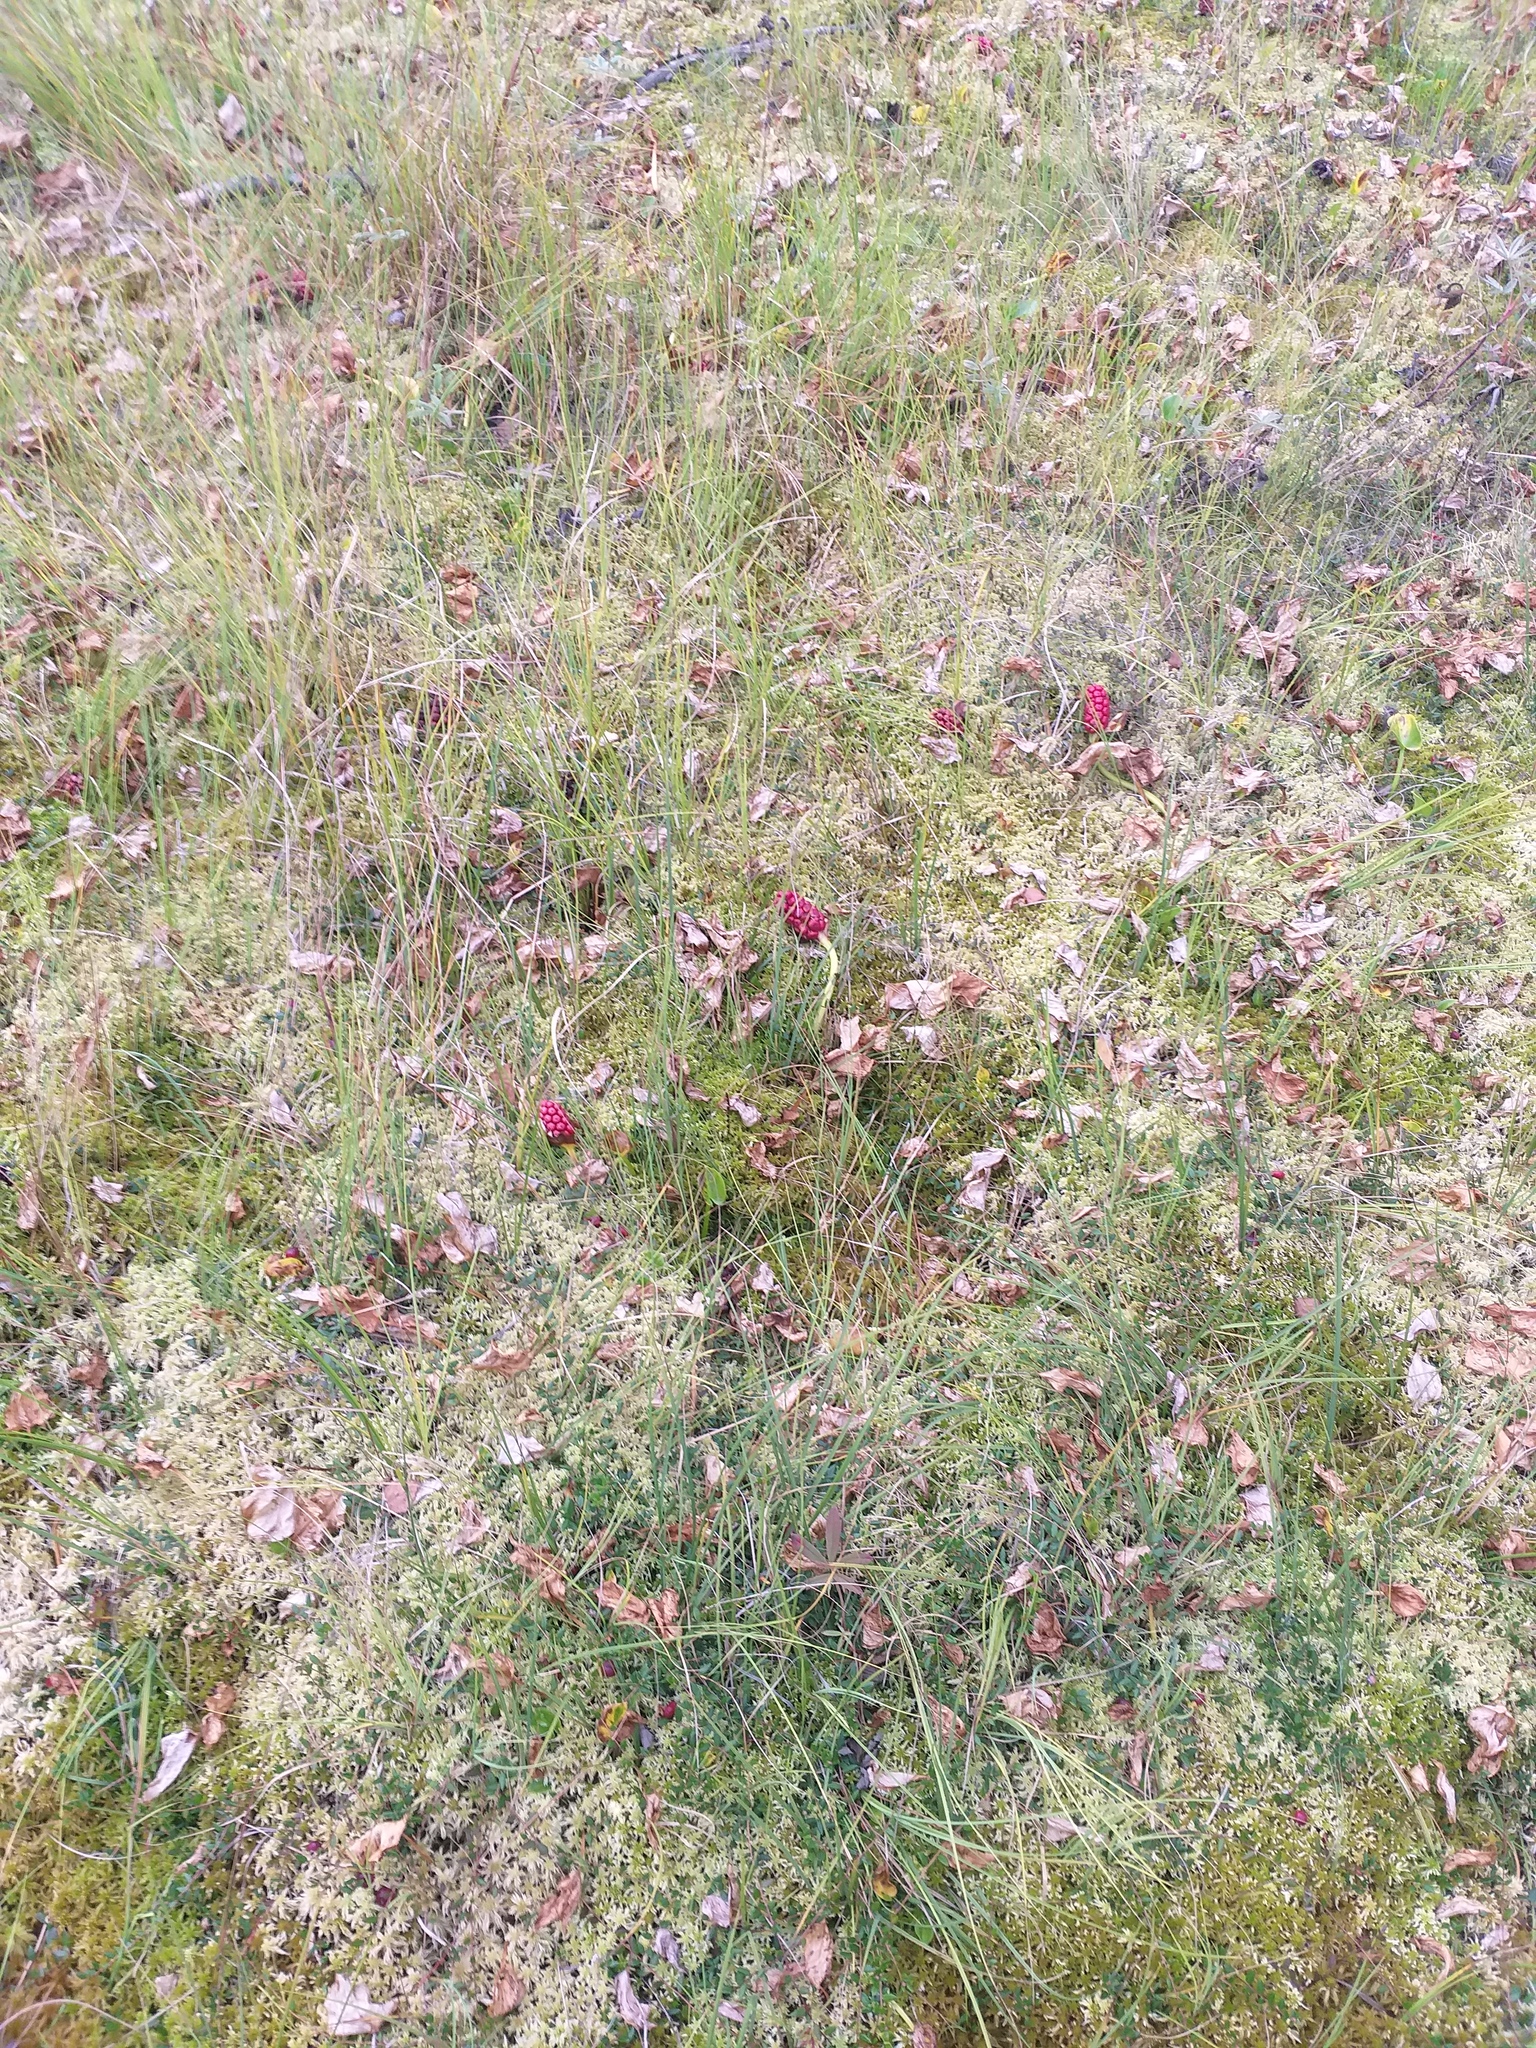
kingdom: Plantae
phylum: Tracheophyta
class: Liliopsida
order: Alismatales
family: Araceae
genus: Calla
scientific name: Calla palustris
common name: Bog arum
